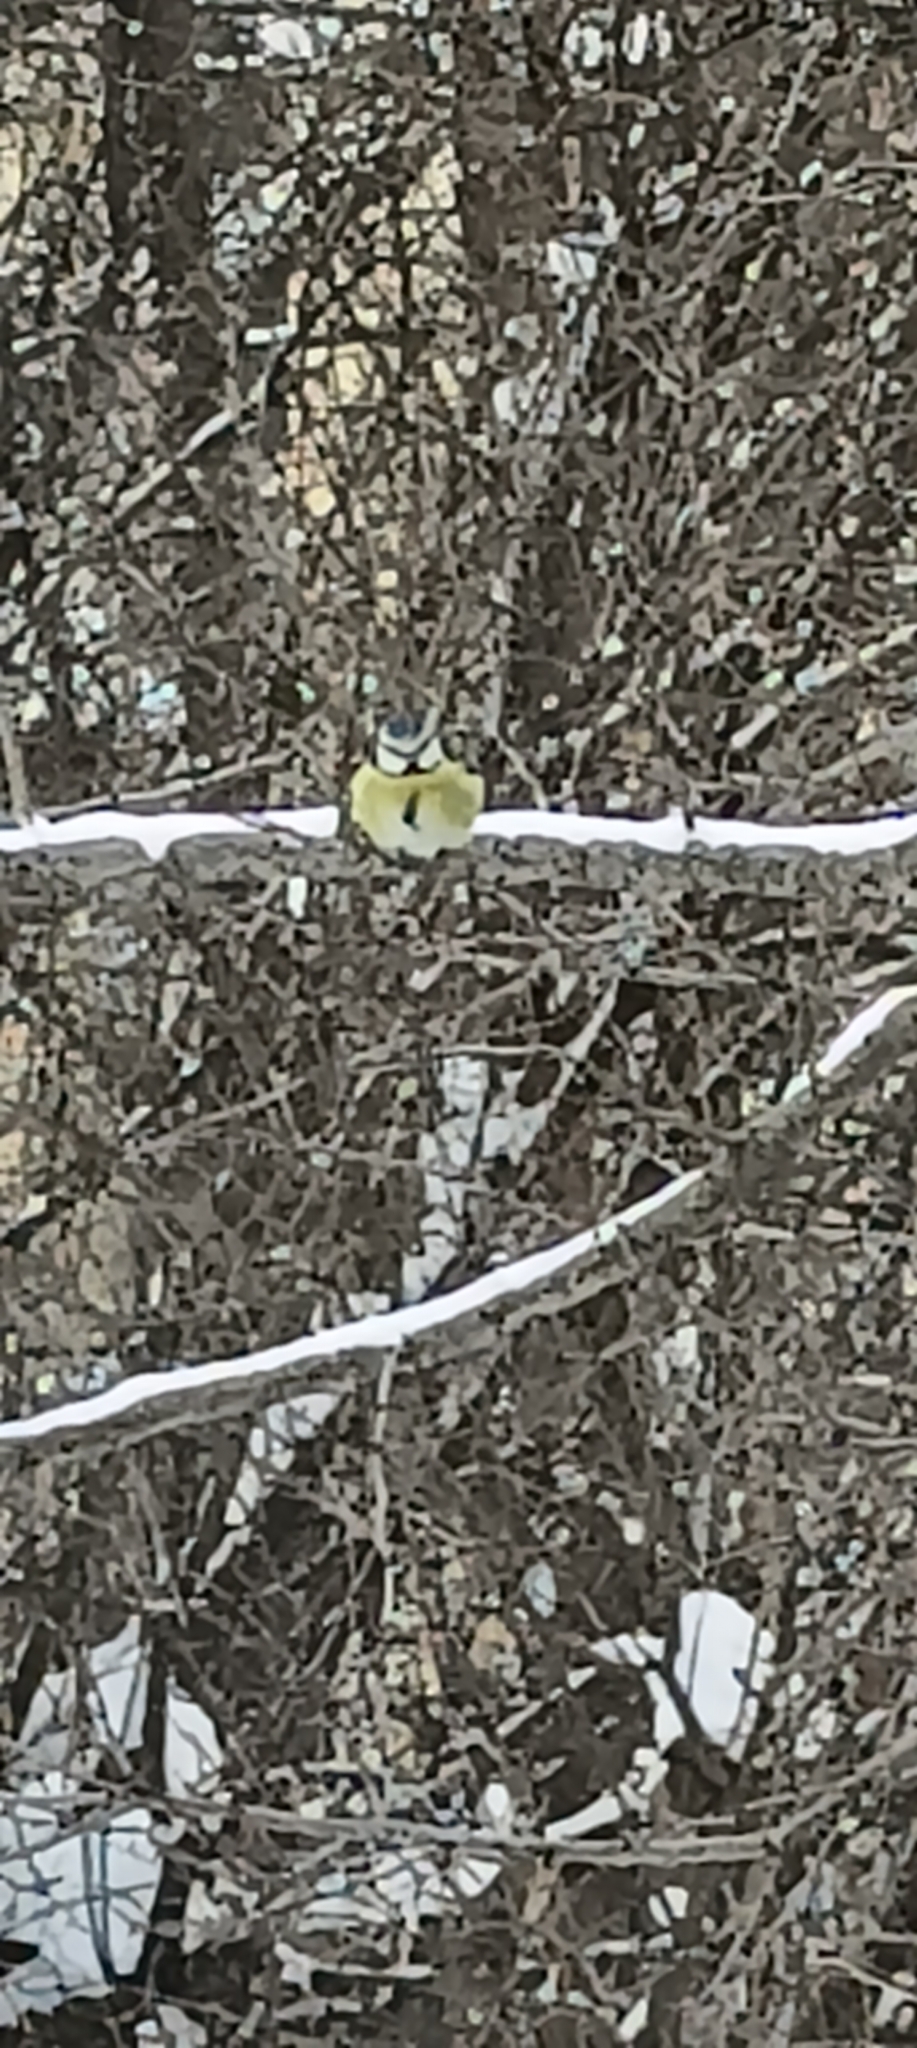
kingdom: Animalia
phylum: Chordata
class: Aves
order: Passeriformes
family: Paridae
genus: Cyanistes
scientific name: Cyanistes caeruleus
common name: Eurasian blue tit
